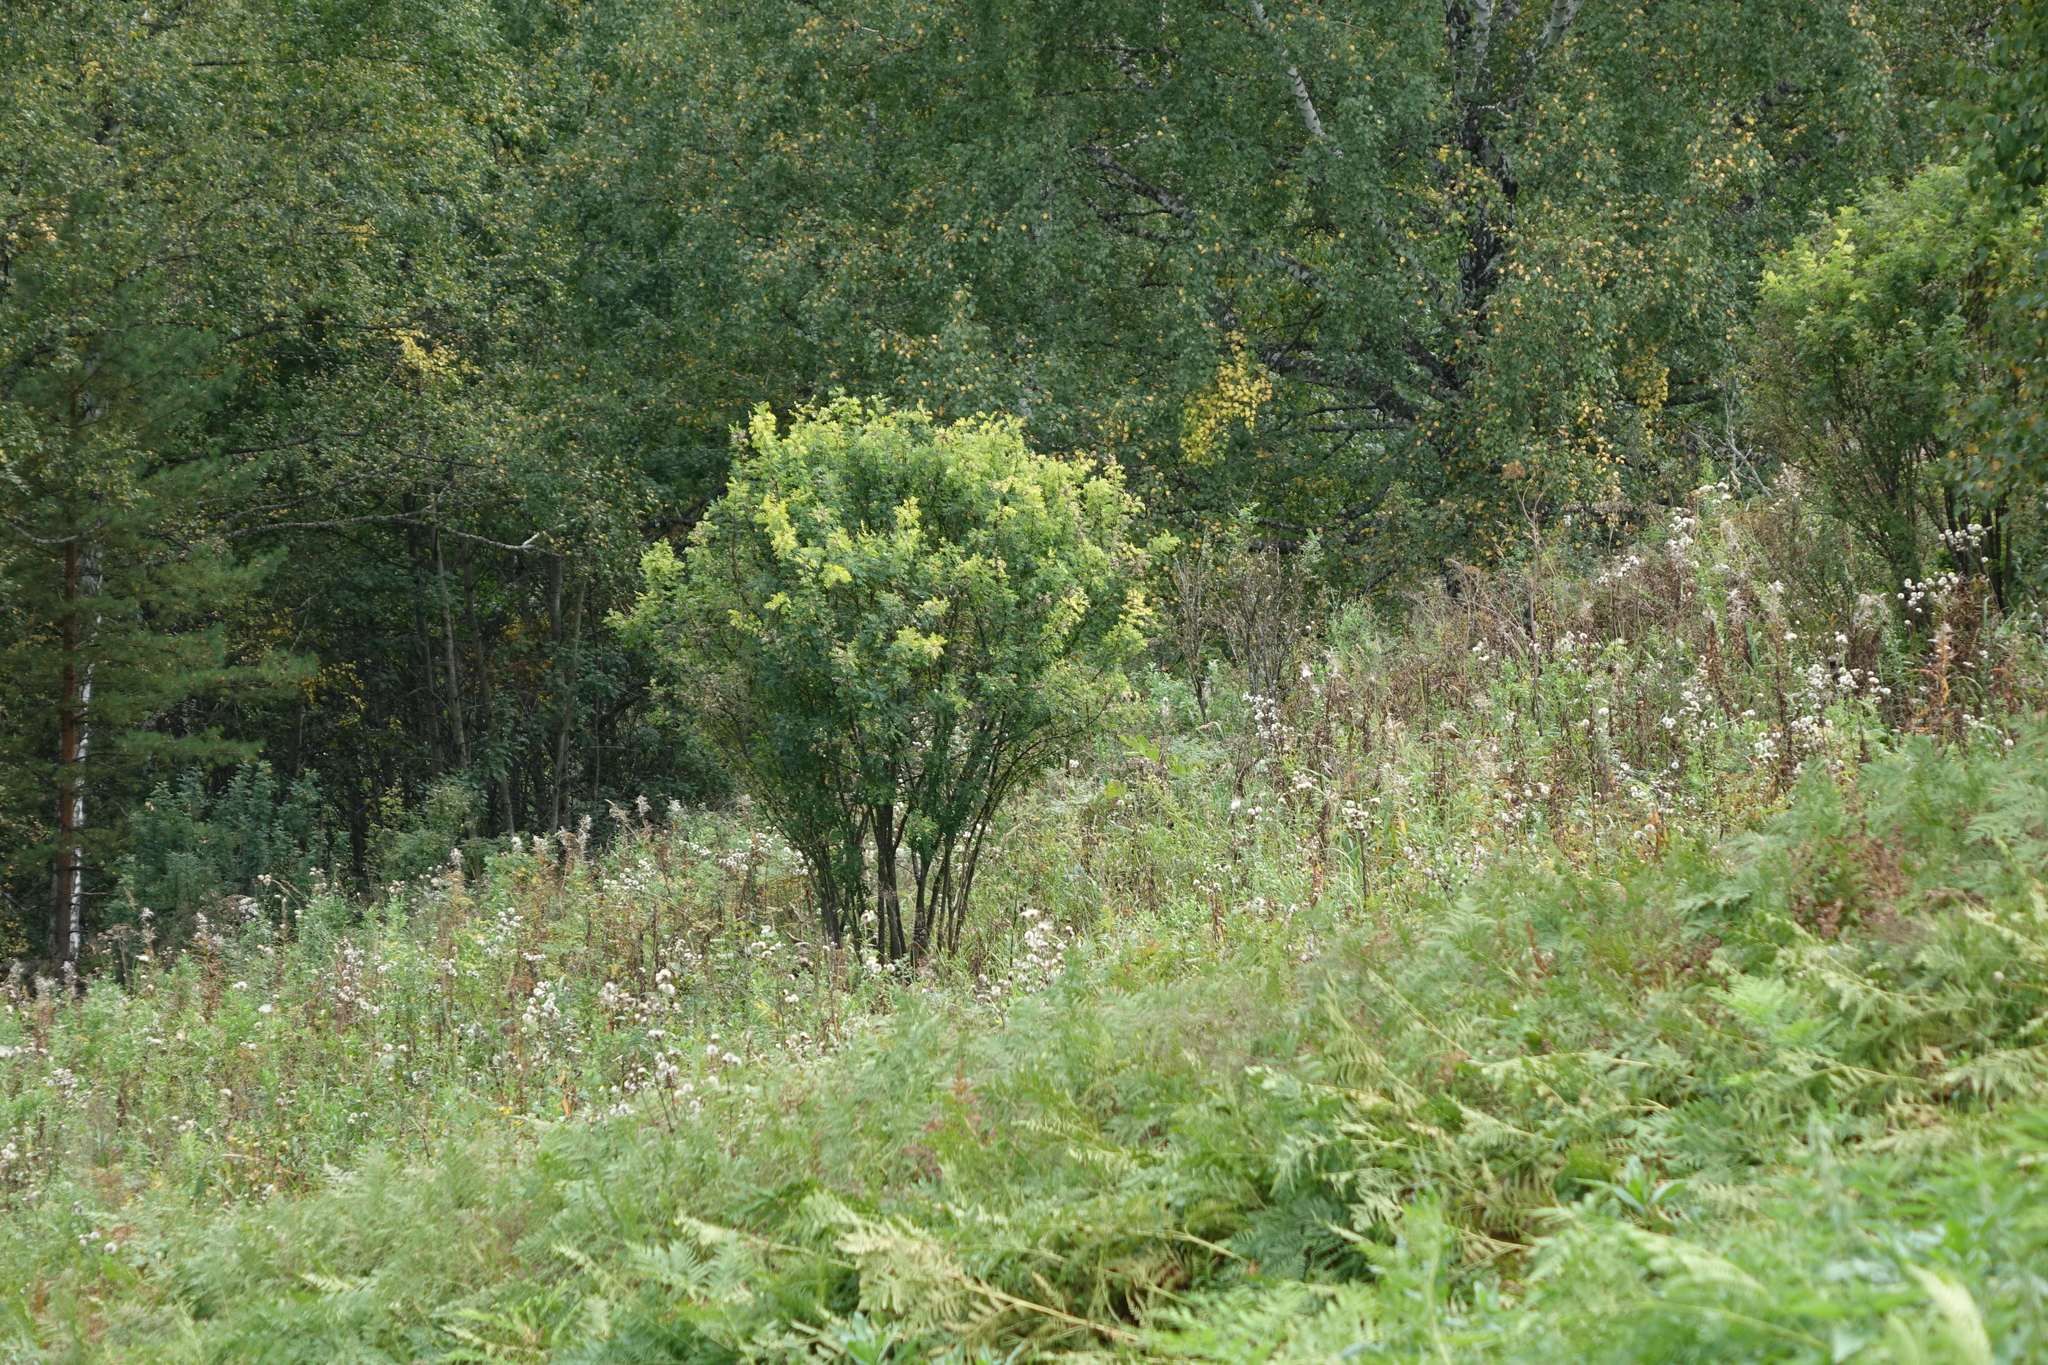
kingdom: Plantae
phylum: Tracheophyta
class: Magnoliopsida
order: Fabales
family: Fabaceae
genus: Caragana
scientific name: Caragana arborescens
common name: Siberian peashrub
